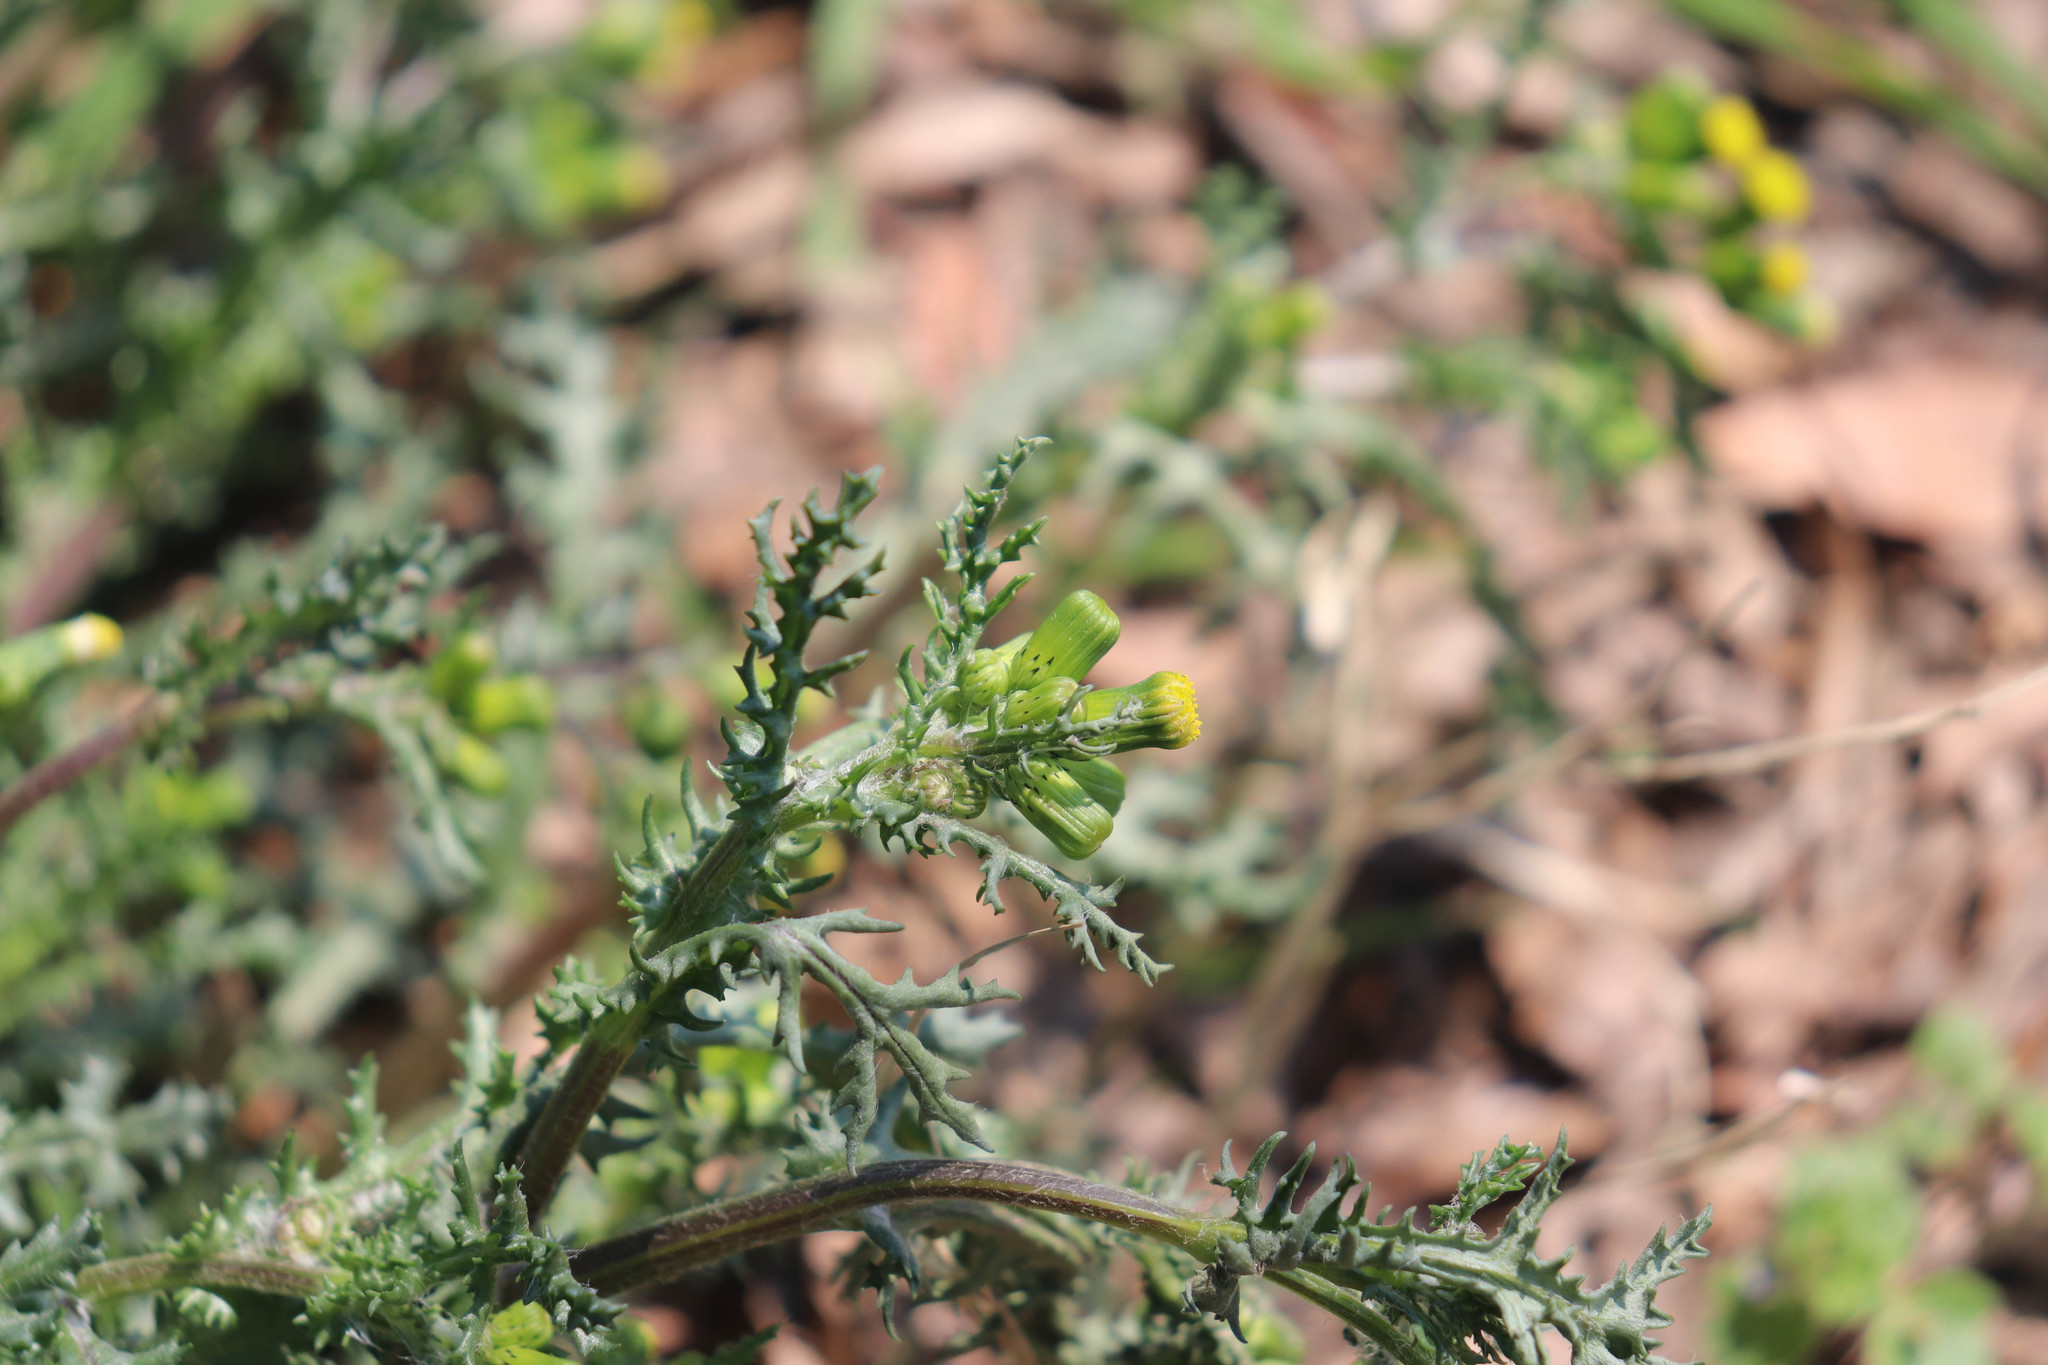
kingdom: Plantae
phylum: Tracheophyta
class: Magnoliopsida
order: Asterales
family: Asteraceae
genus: Senecio
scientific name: Senecio vulgaris
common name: Old-man-in-the-spring
